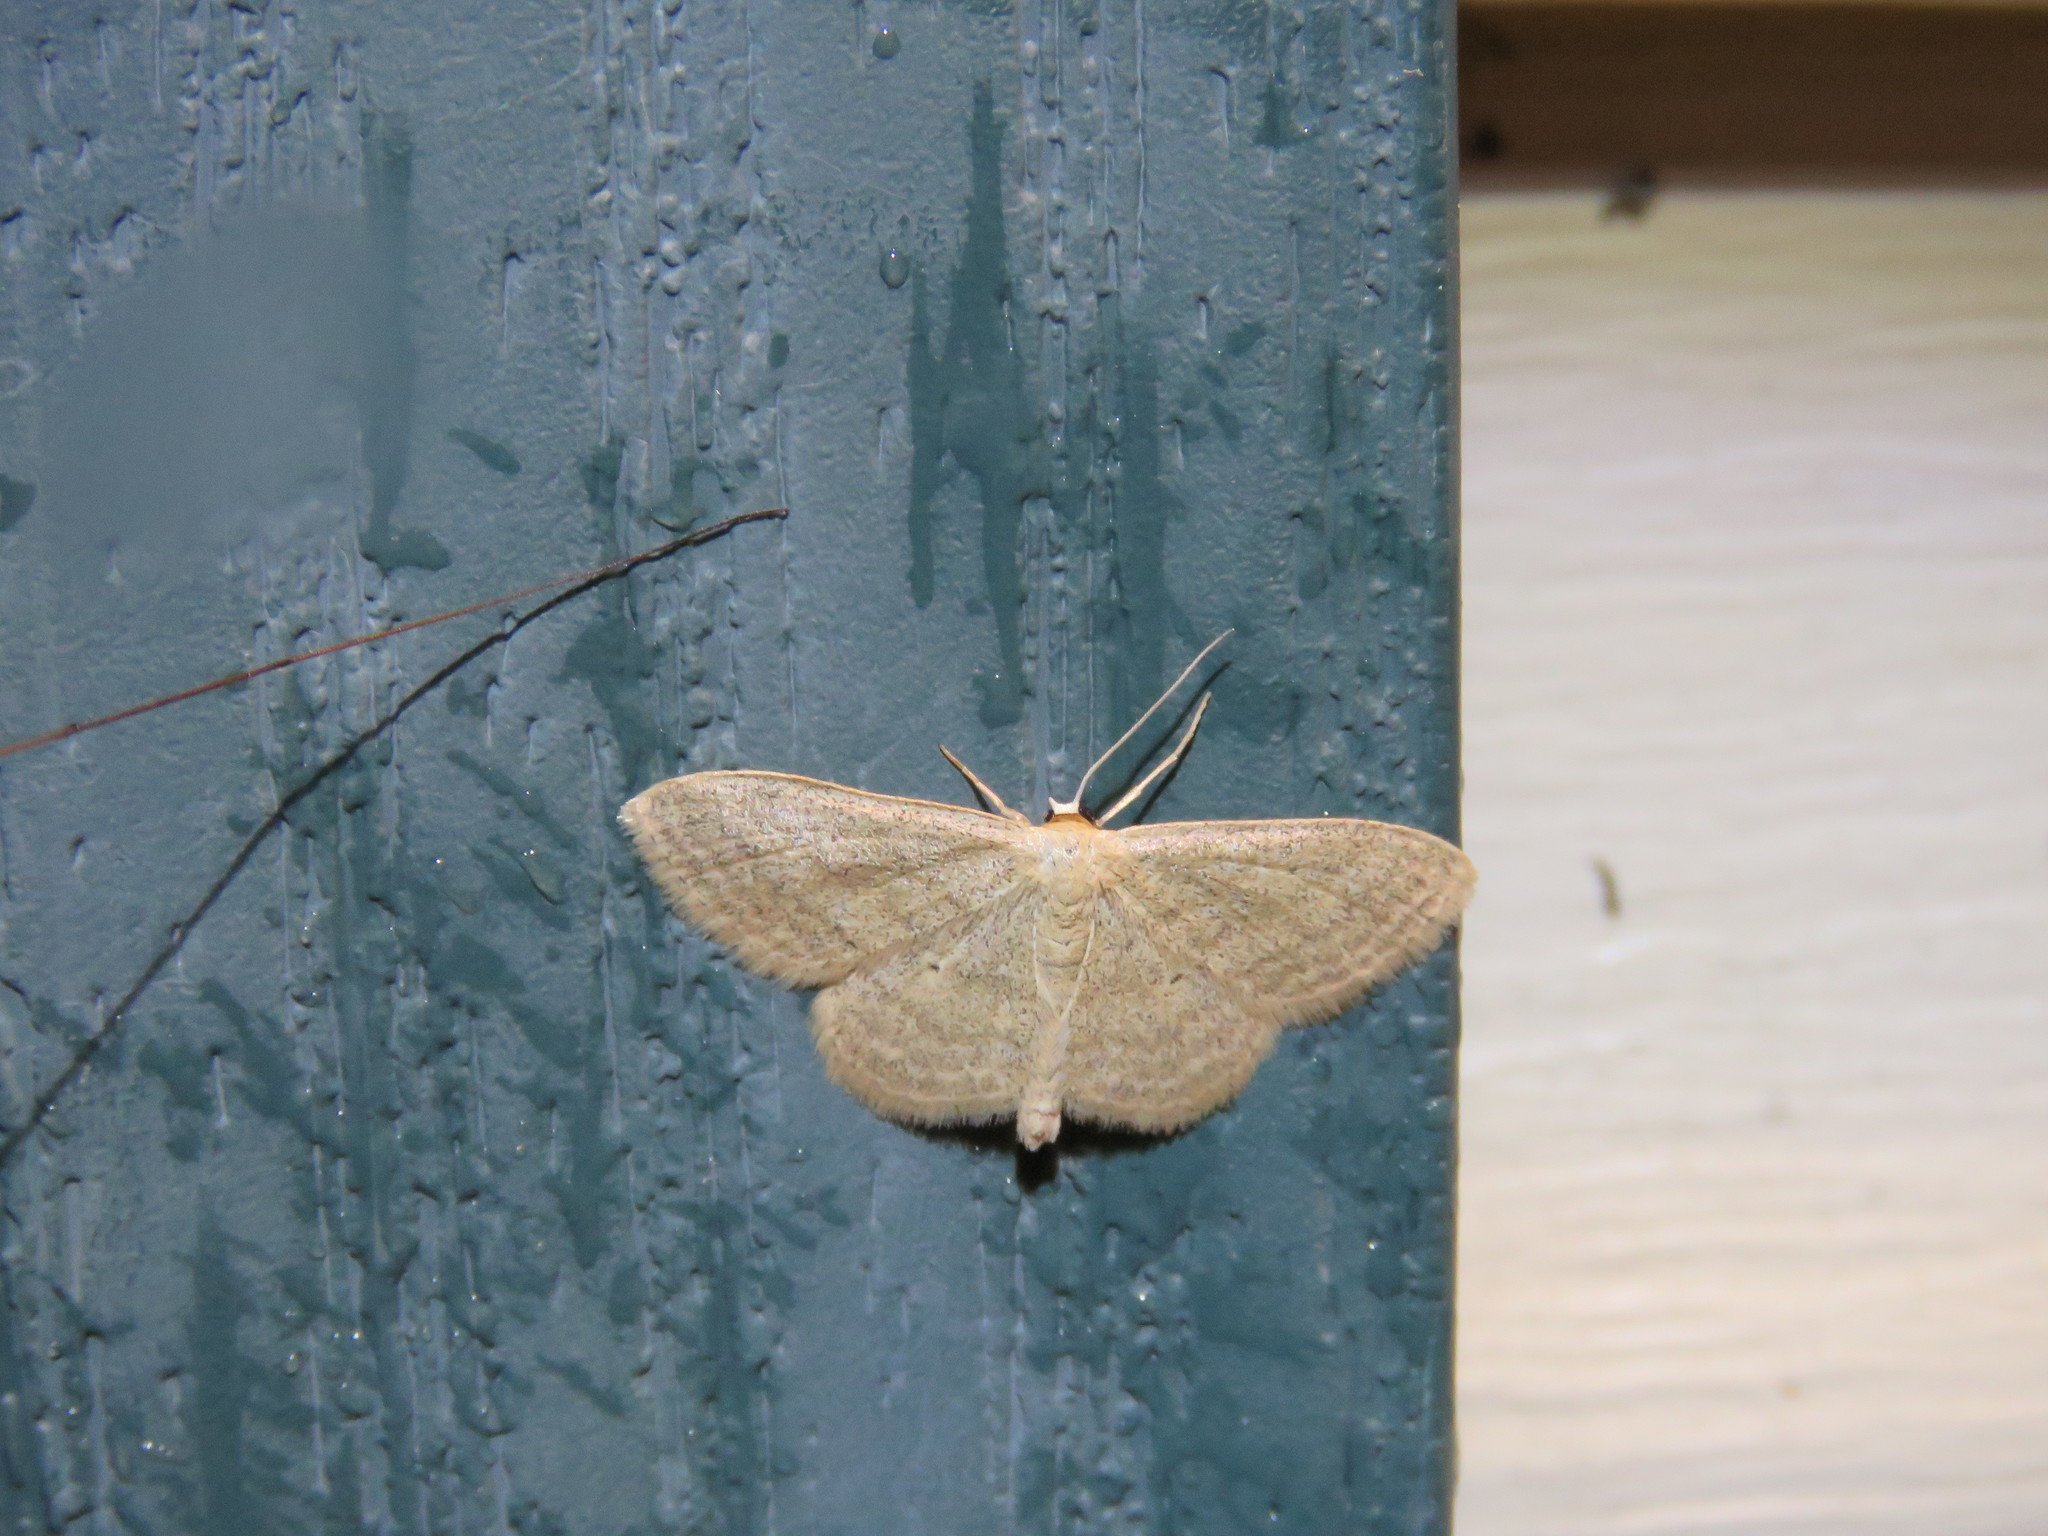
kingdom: Animalia
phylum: Arthropoda
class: Insecta
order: Lepidoptera
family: Geometridae
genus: Scopula
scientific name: Scopula inductata
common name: Soft-lined wave
